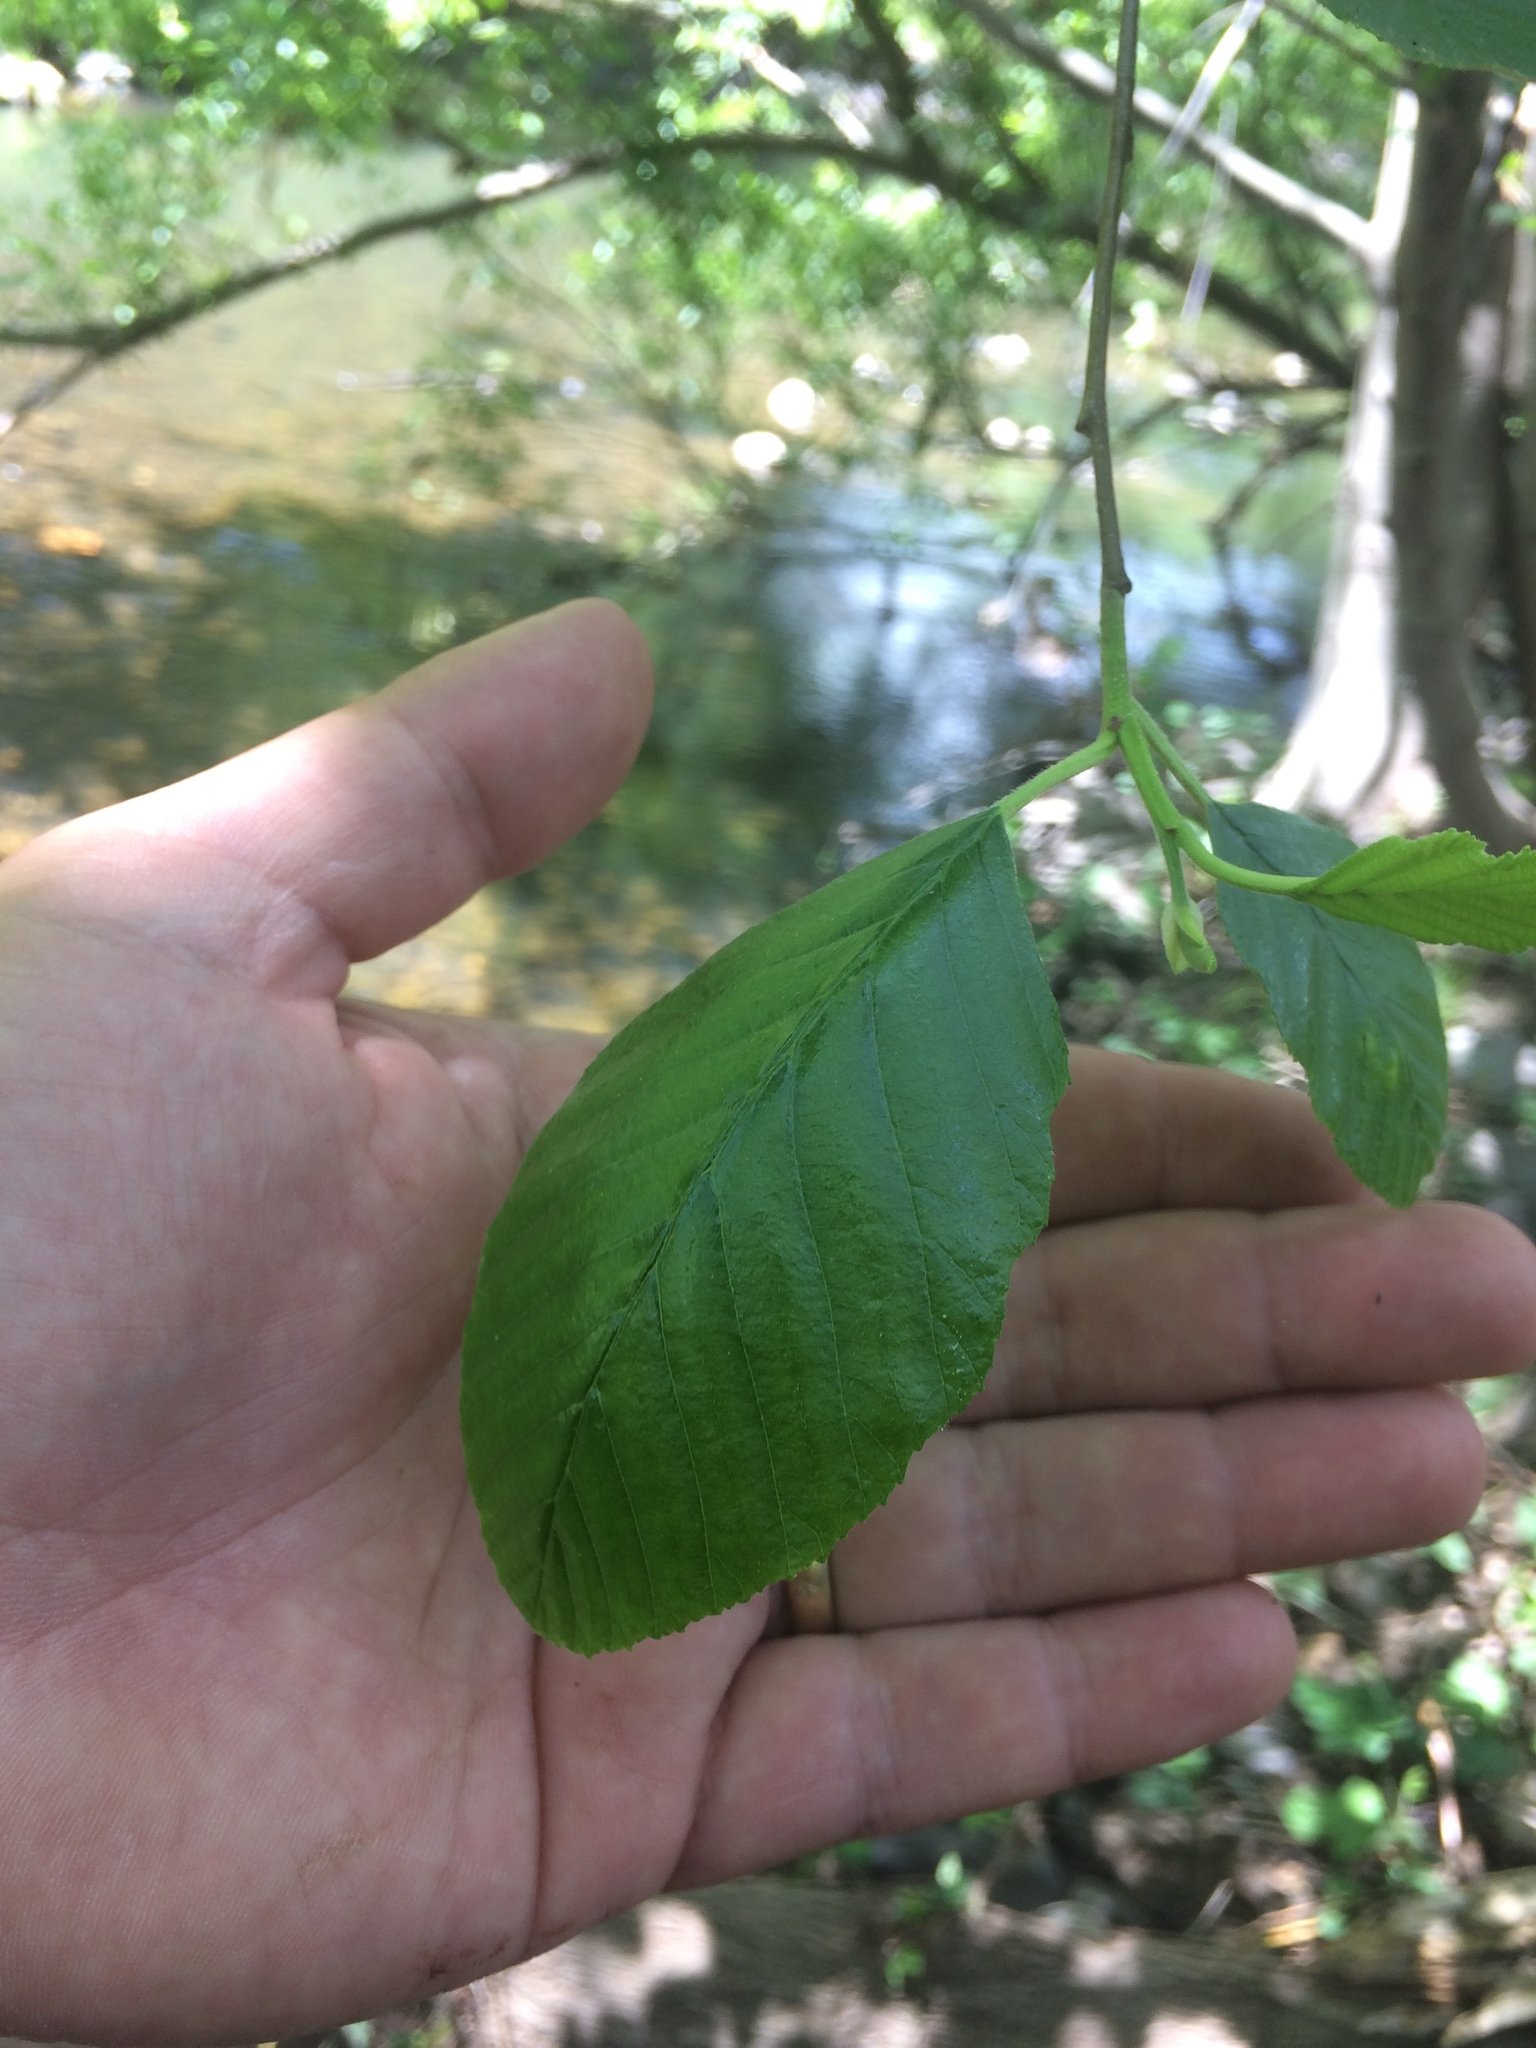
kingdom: Plantae
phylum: Tracheophyta
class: Magnoliopsida
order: Fagales
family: Betulaceae
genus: Alnus
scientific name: Alnus rhombifolia
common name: California alder
